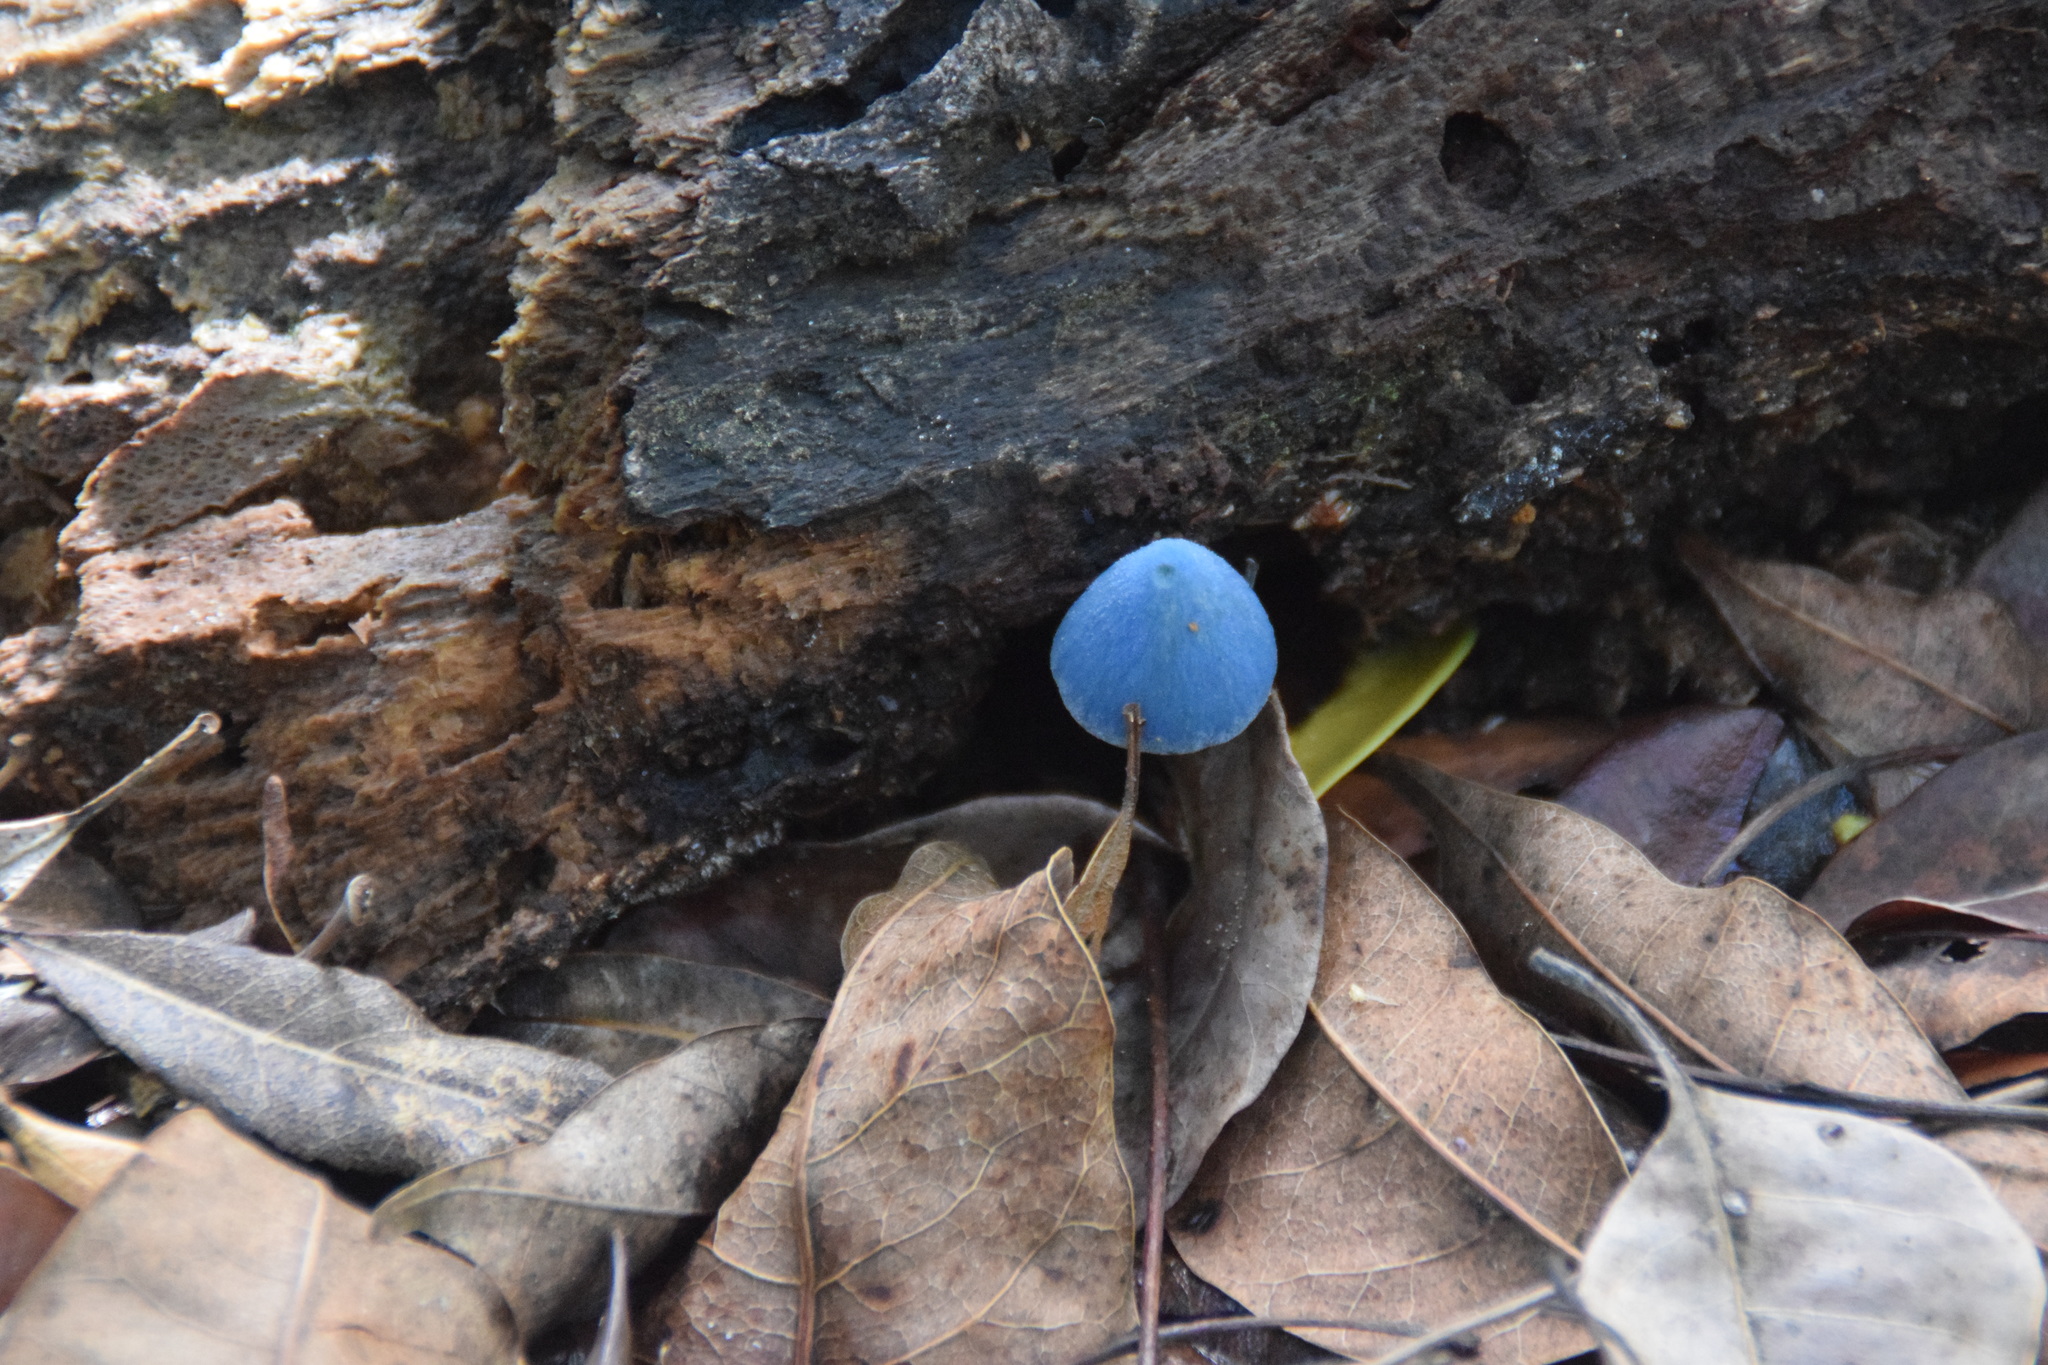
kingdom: Fungi
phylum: Basidiomycota
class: Agaricomycetes
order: Agaricales
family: Entolomataceae
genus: Entoloma
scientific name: Entoloma virescens
